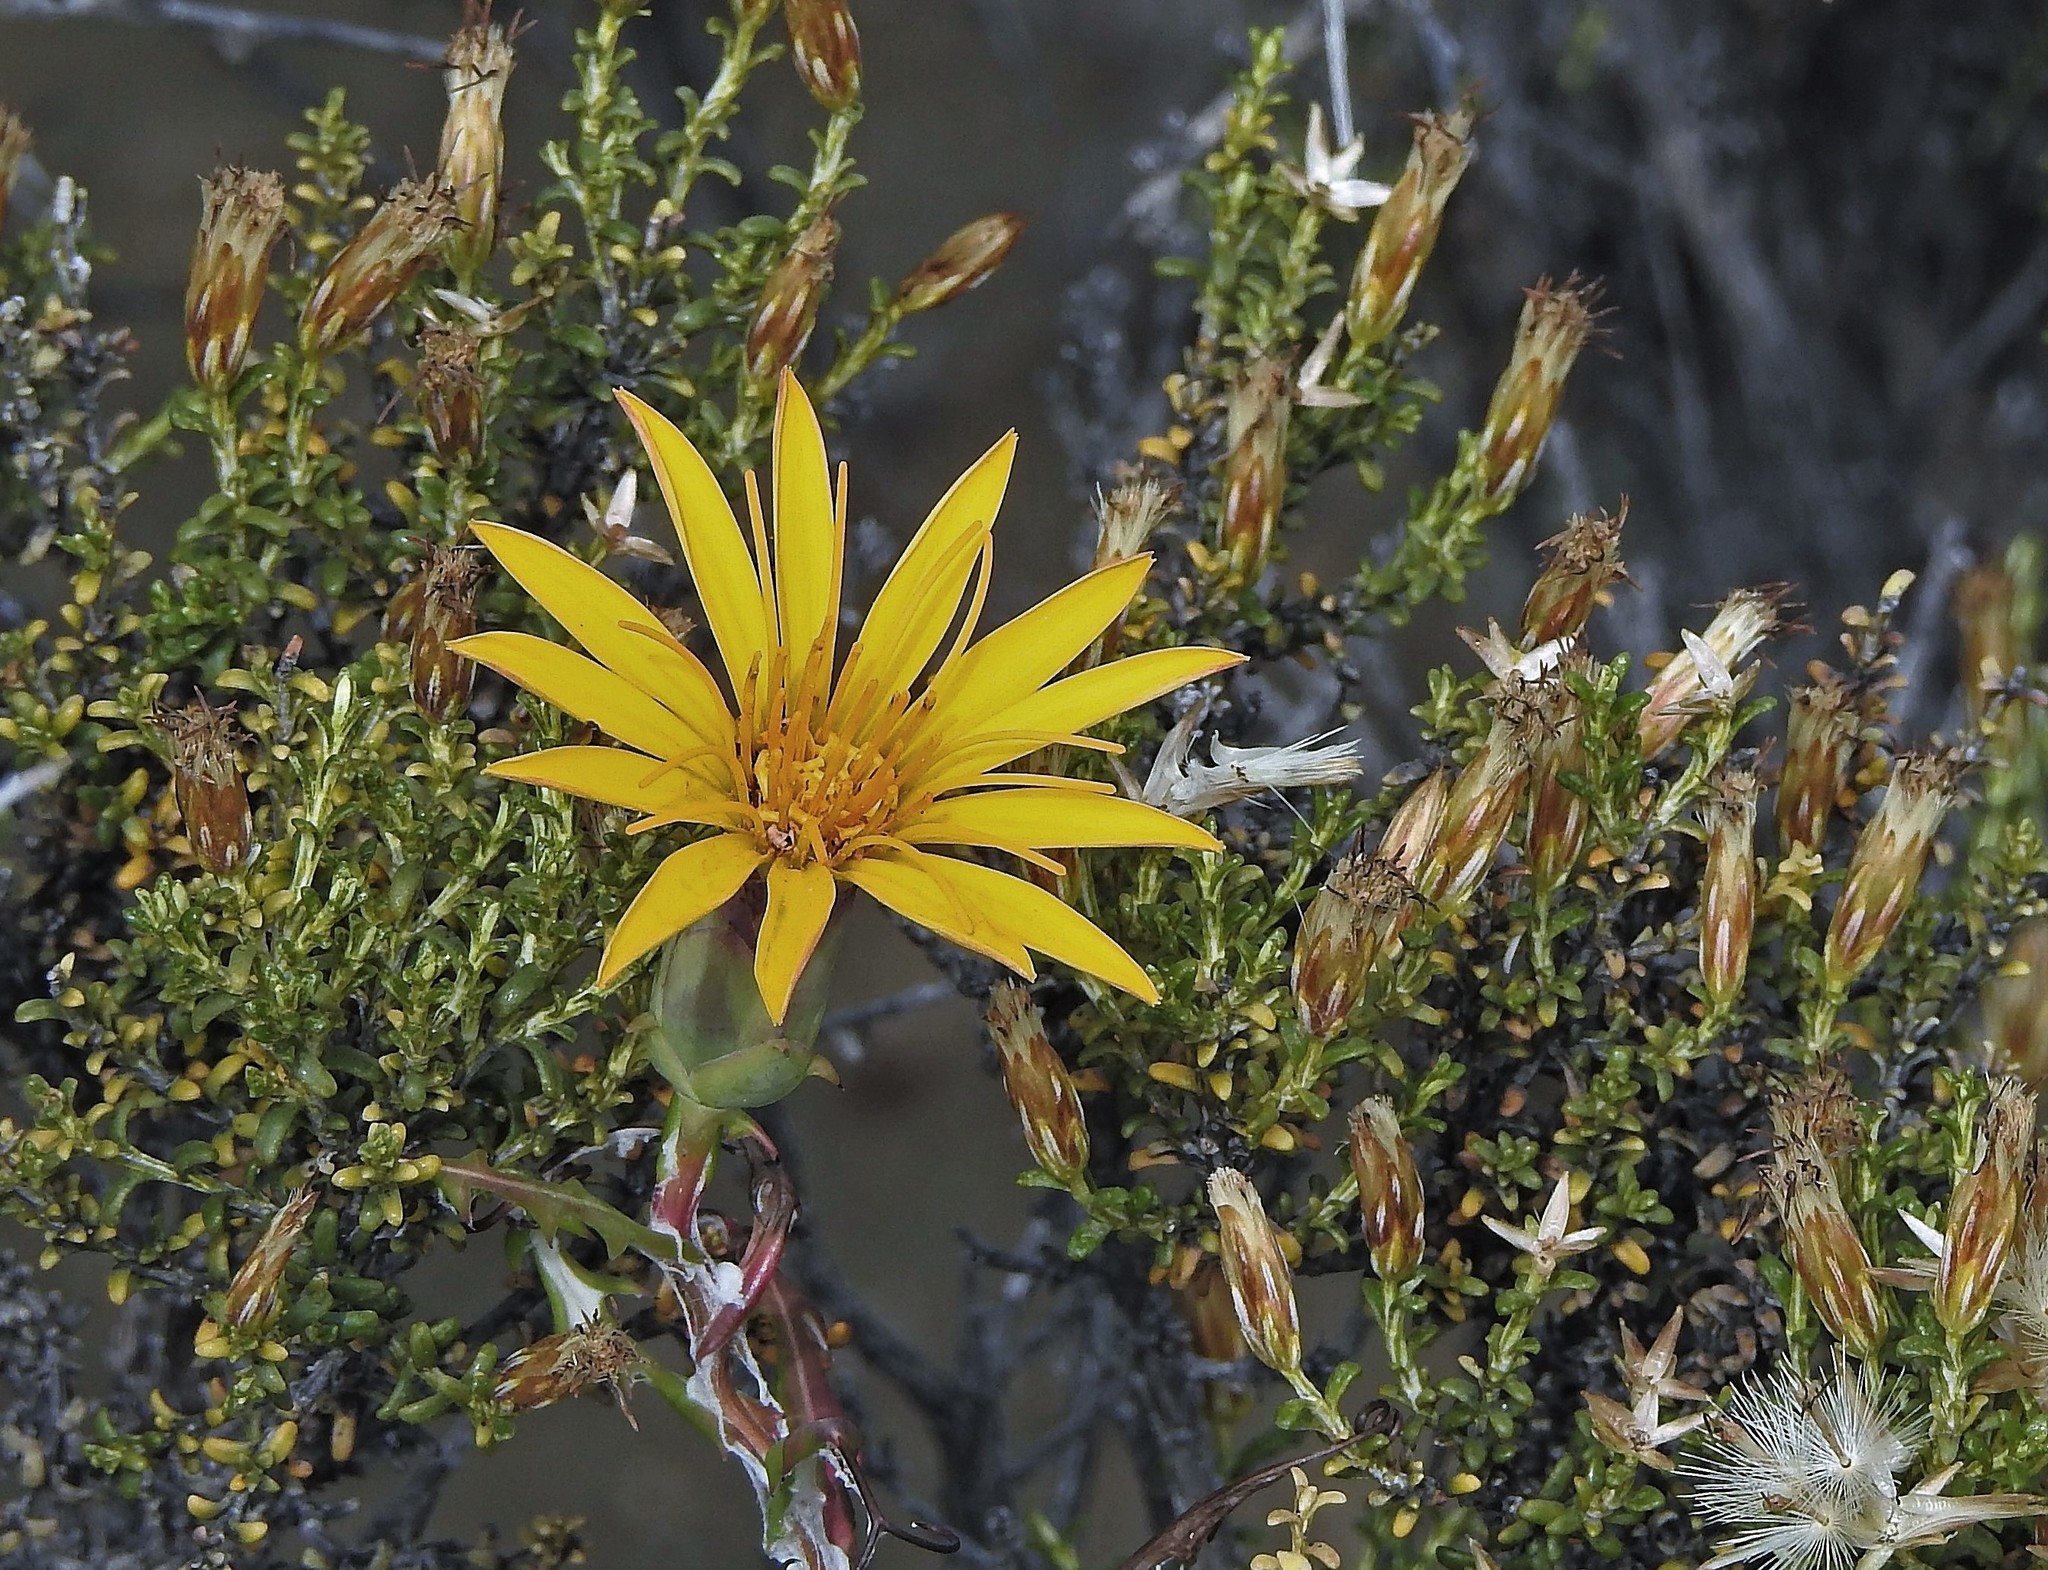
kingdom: Plantae
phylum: Tracheophyta
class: Magnoliopsida
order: Asterales
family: Asteraceae
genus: Mutisia
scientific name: Mutisia retrorsa
